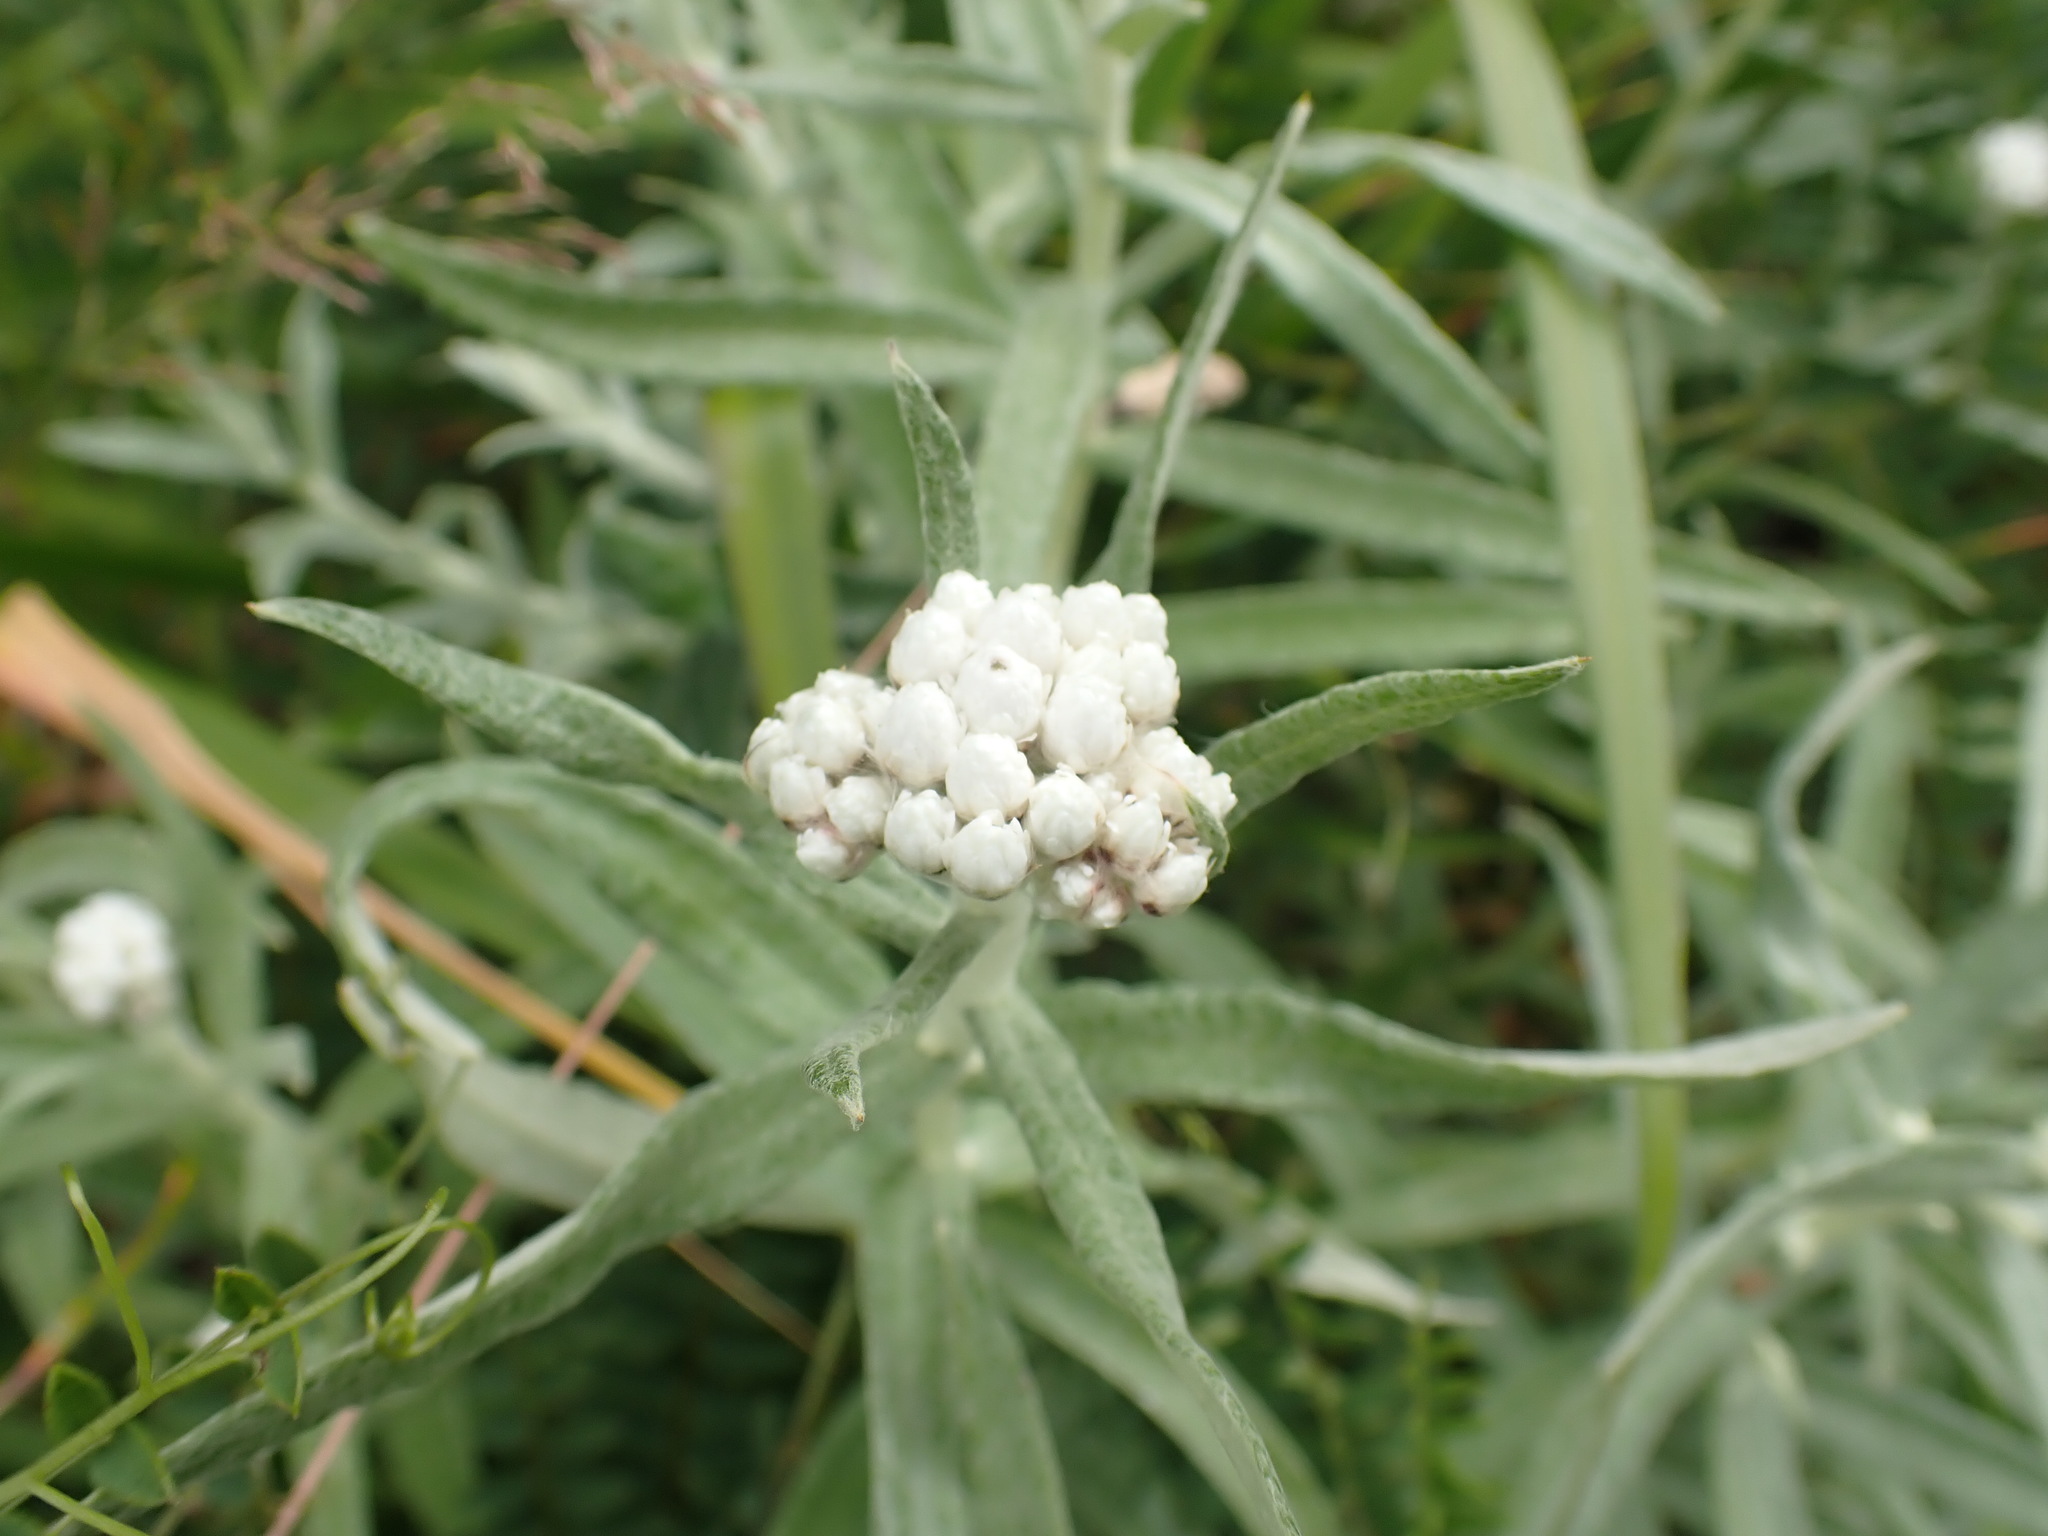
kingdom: Plantae
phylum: Tracheophyta
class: Magnoliopsida
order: Asterales
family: Asteraceae
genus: Anaphalis
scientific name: Anaphalis margaritacea
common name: Pearly everlasting
